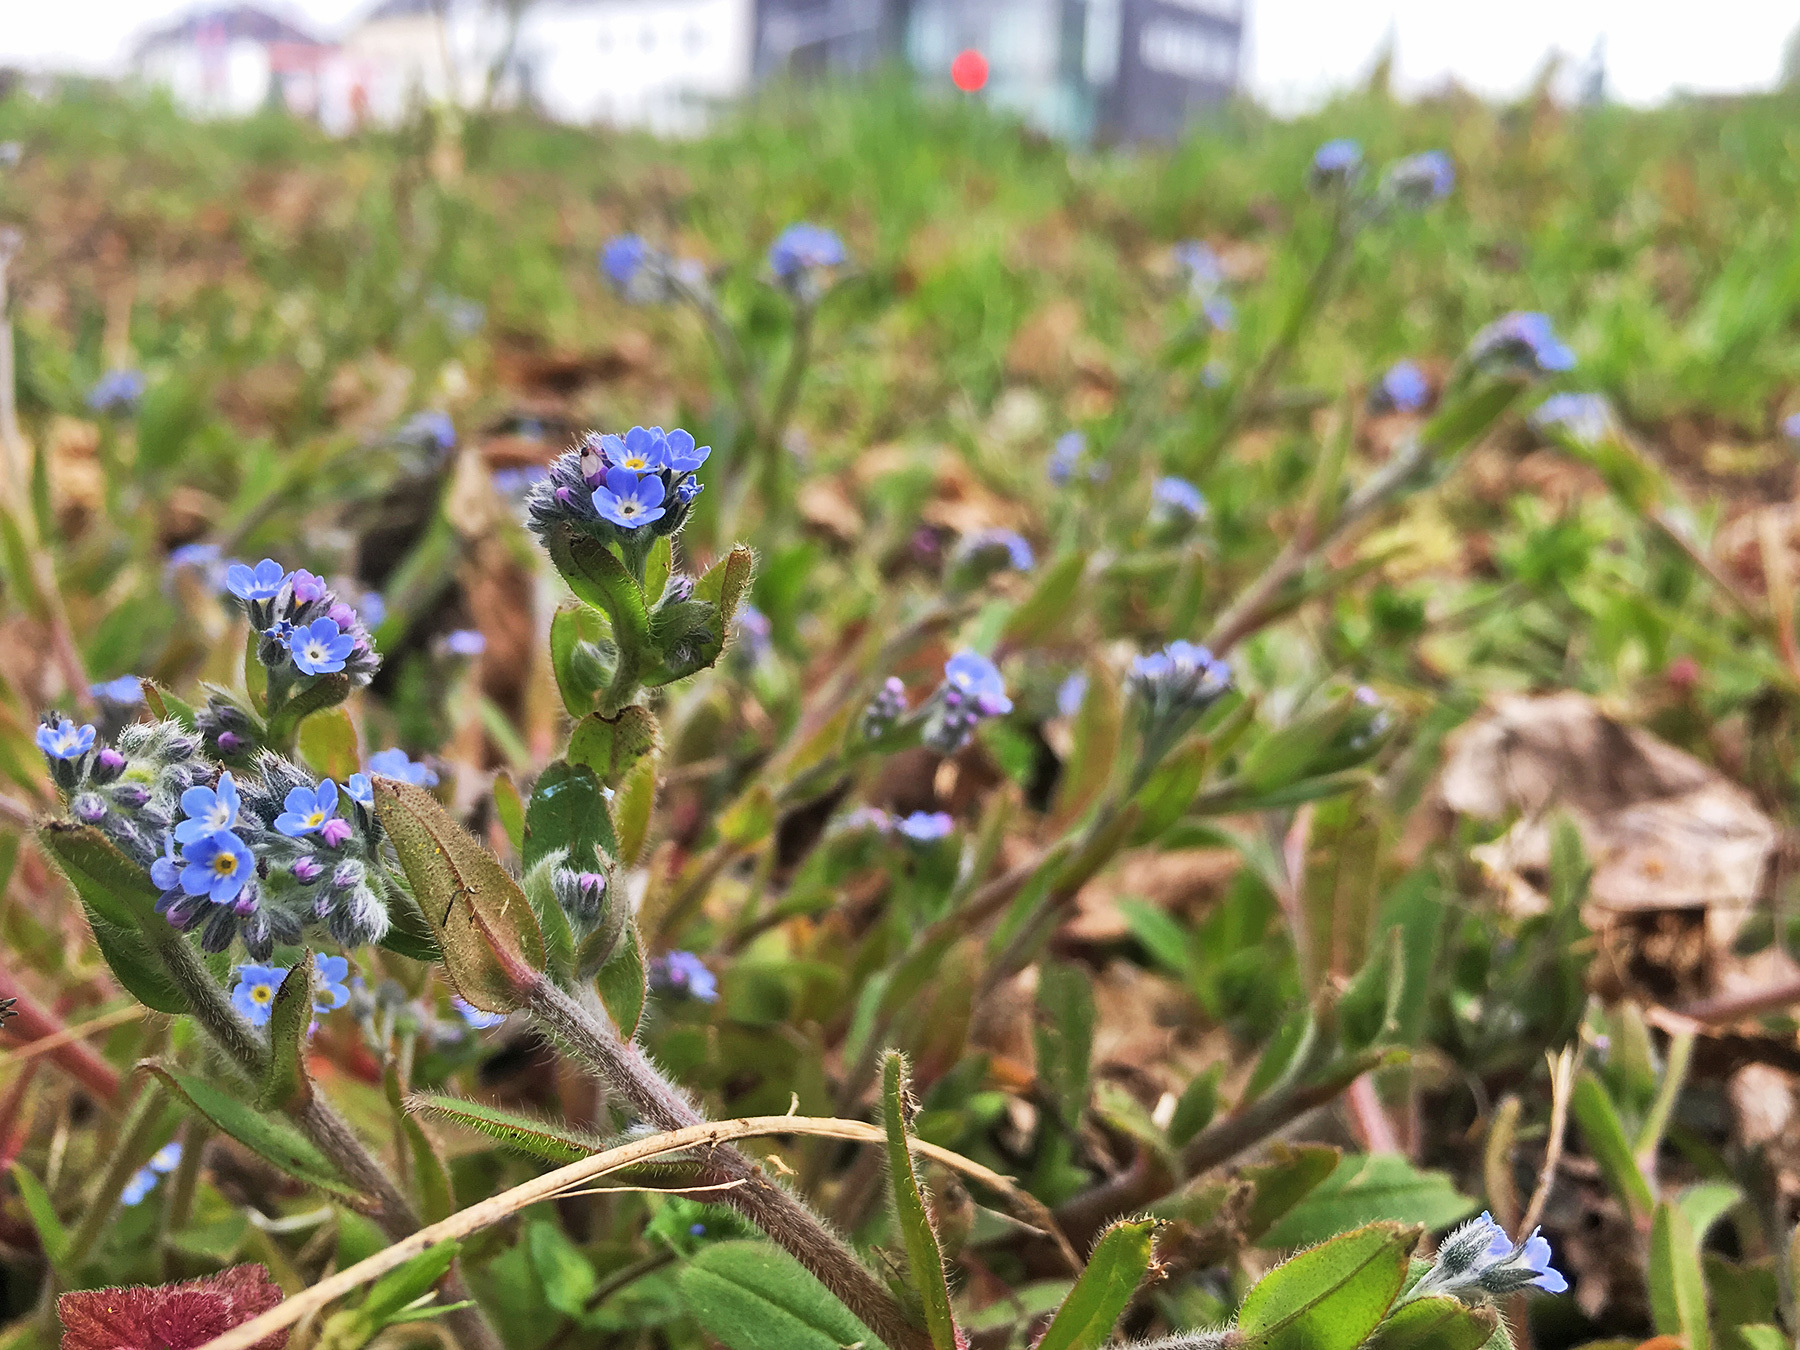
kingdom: Plantae
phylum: Tracheophyta
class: Magnoliopsida
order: Boraginales
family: Boraginaceae
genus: Myosotis
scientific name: Myosotis arvensis
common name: Field forget-me-not
